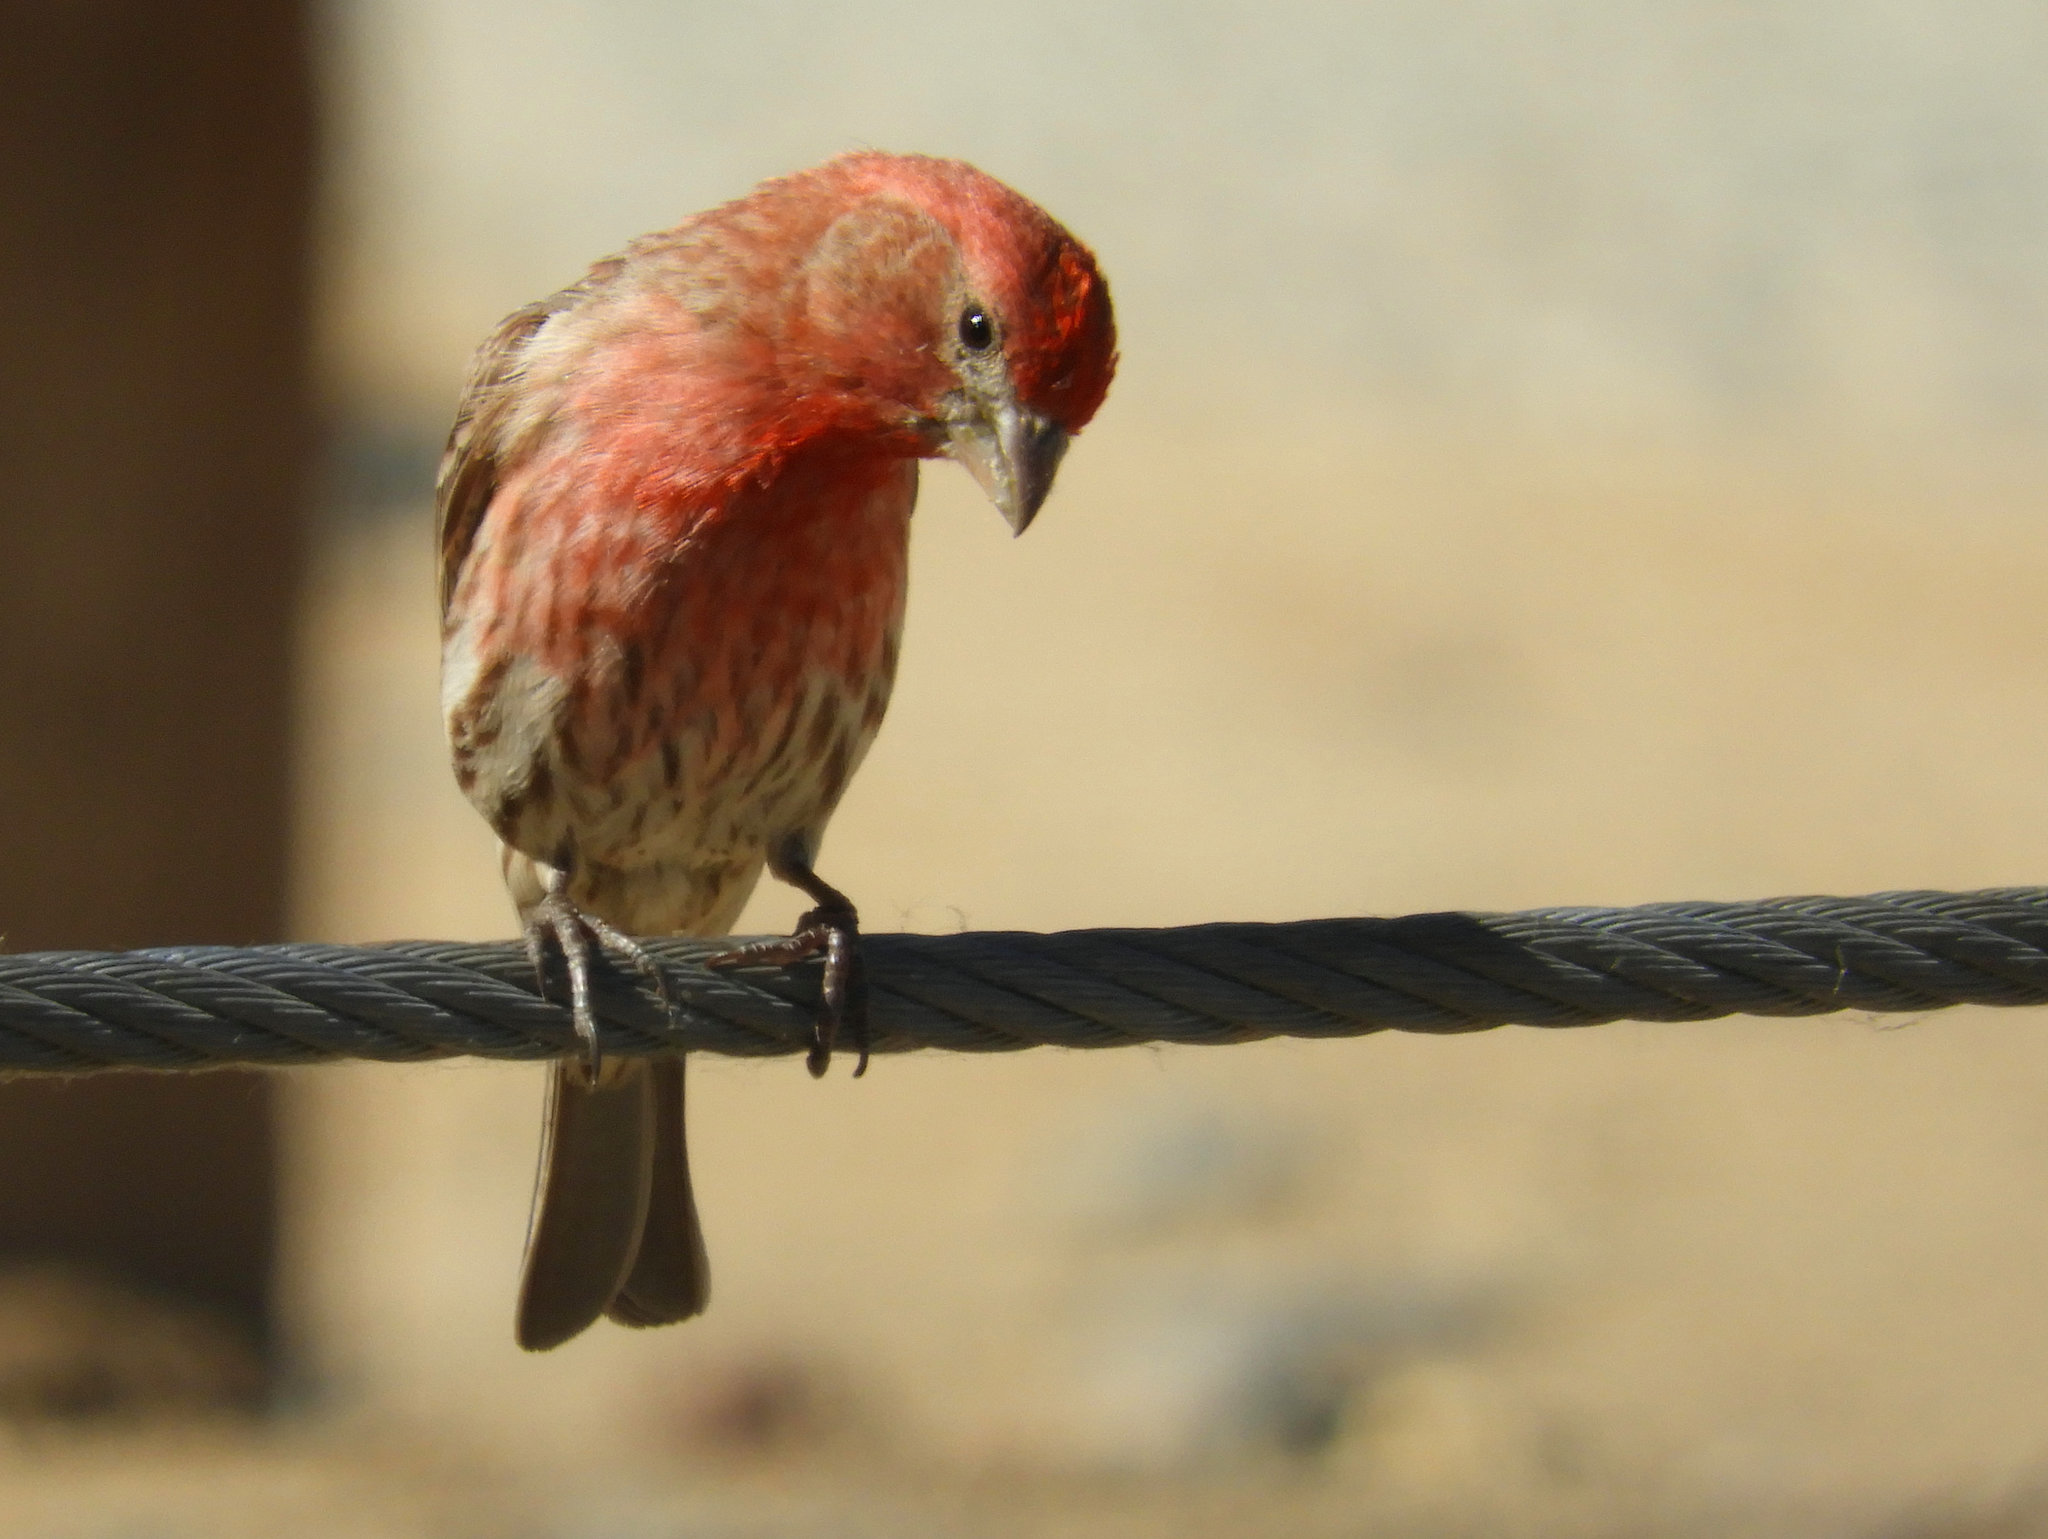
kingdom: Animalia
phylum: Chordata
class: Aves
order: Passeriformes
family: Fringillidae
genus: Haemorhous
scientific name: Haemorhous mexicanus
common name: House finch
